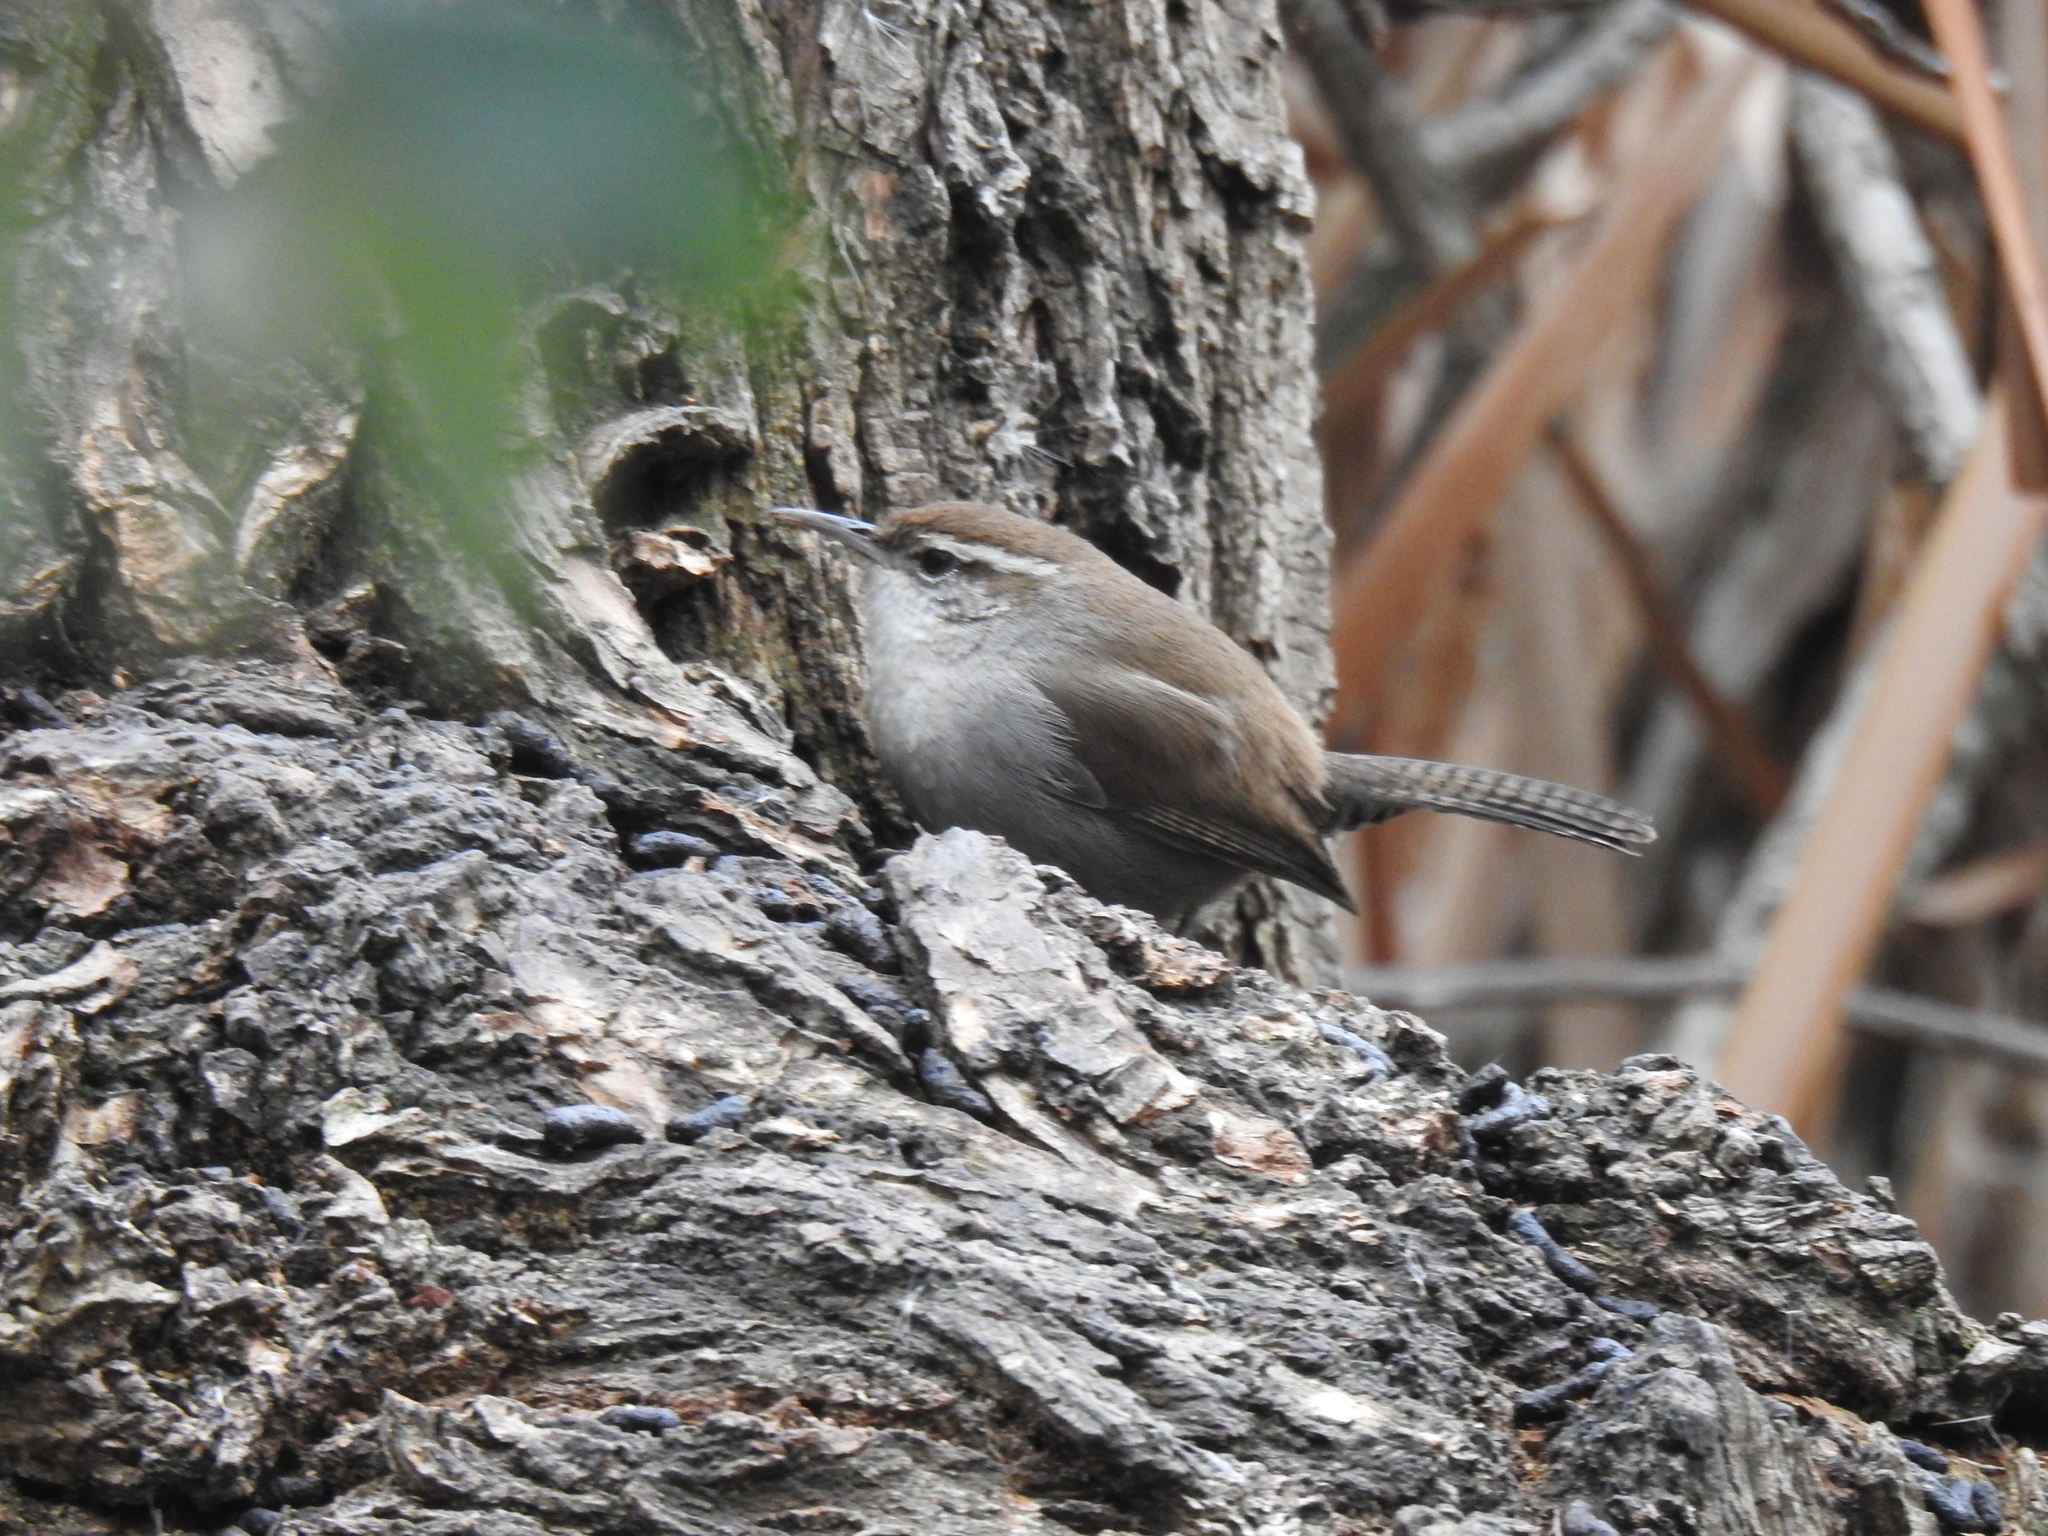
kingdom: Animalia
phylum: Chordata
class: Aves
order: Passeriformes
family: Troglodytidae
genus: Thryomanes
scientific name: Thryomanes bewickii
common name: Bewick's wren
